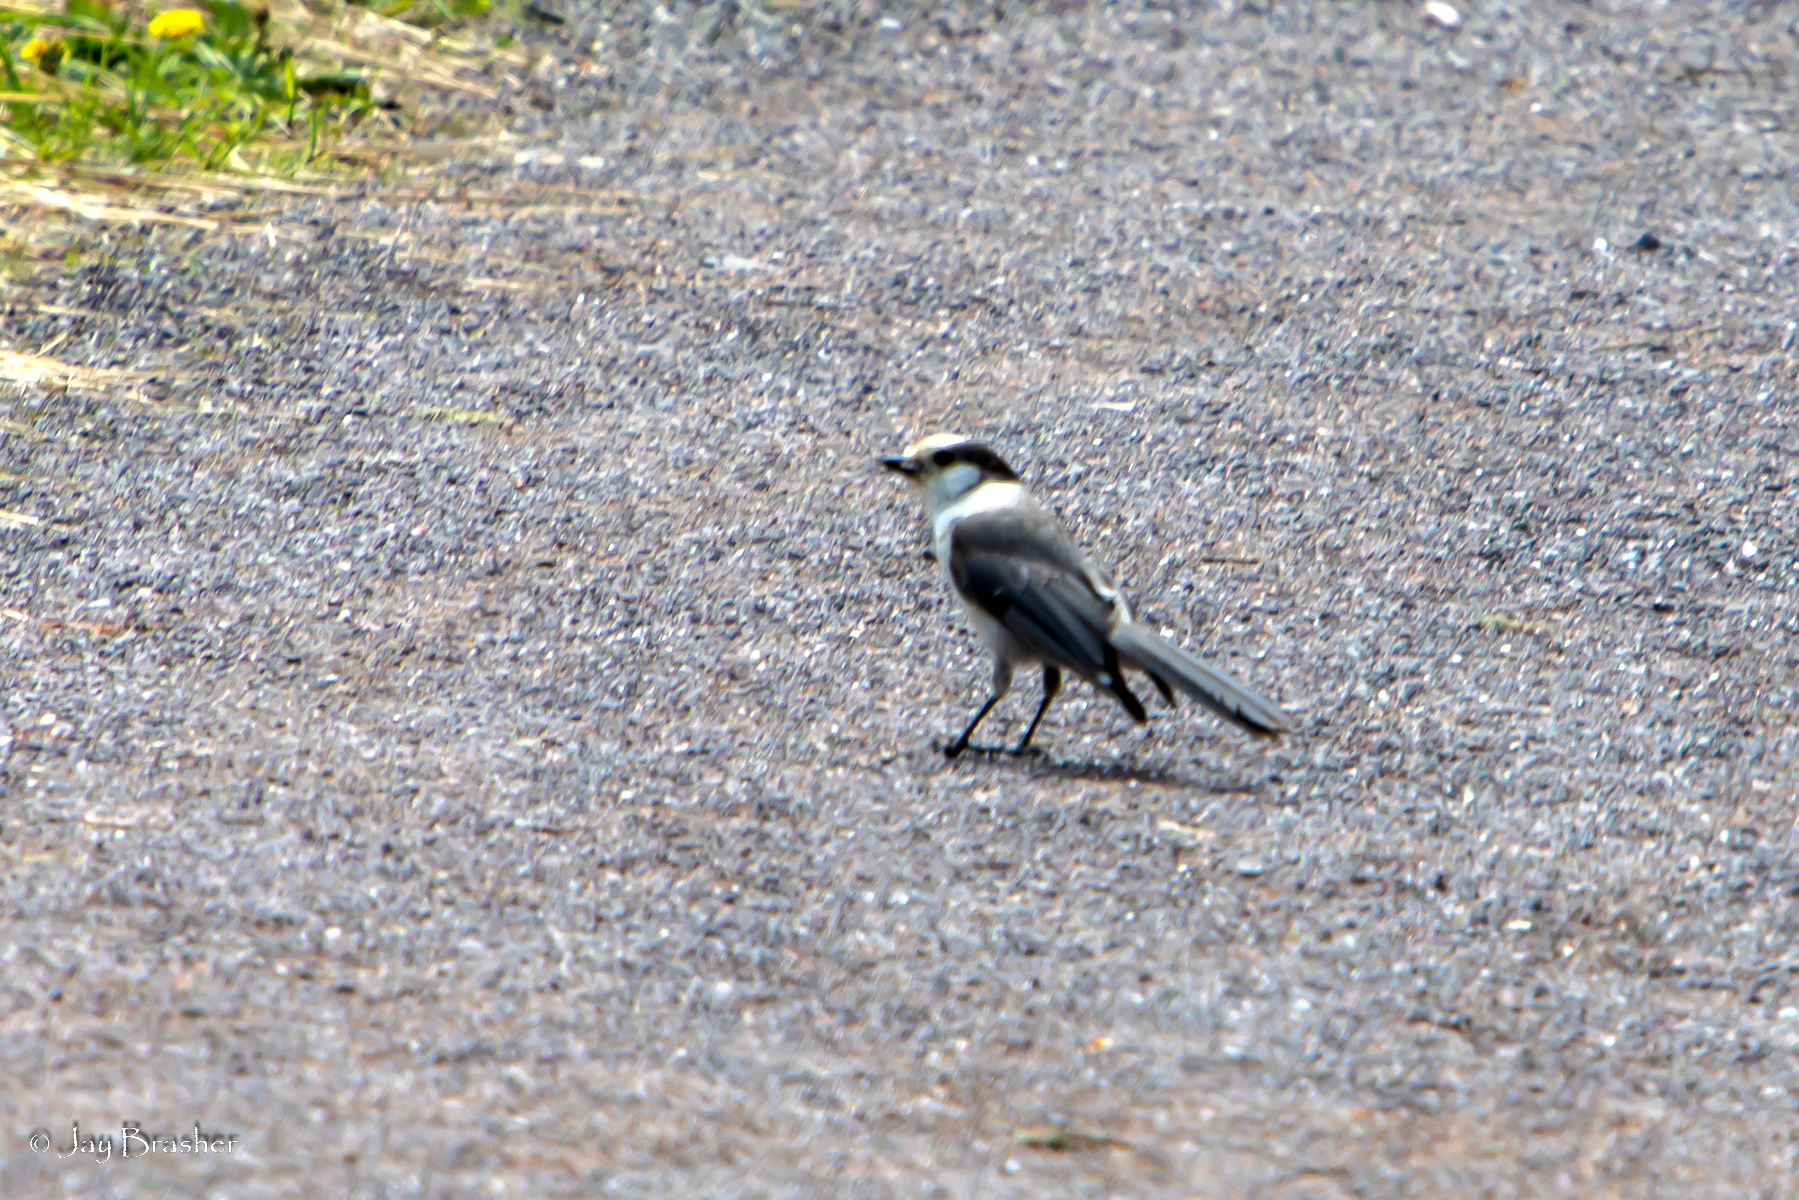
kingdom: Animalia
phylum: Chordata
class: Aves
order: Passeriformes
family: Corvidae
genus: Perisoreus
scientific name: Perisoreus canadensis
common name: Gray jay
